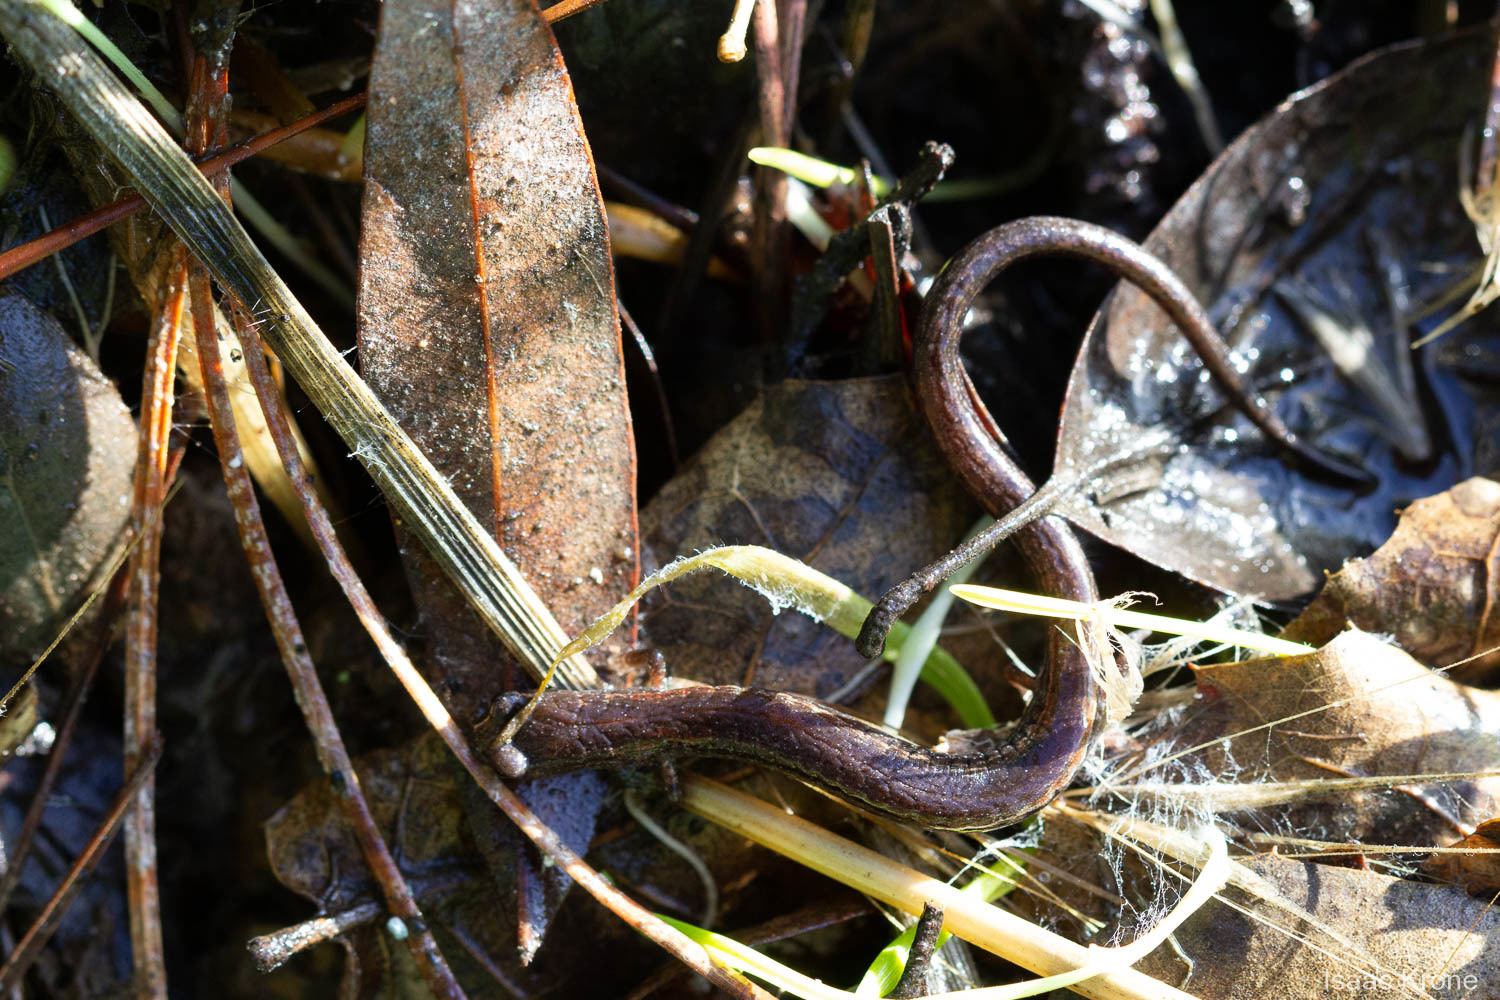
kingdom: Animalia
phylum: Chordata
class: Amphibia
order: Caudata
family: Plethodontidae
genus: Batrachoseps
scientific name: Batrachoseps attenuatus
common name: California slender salamander
